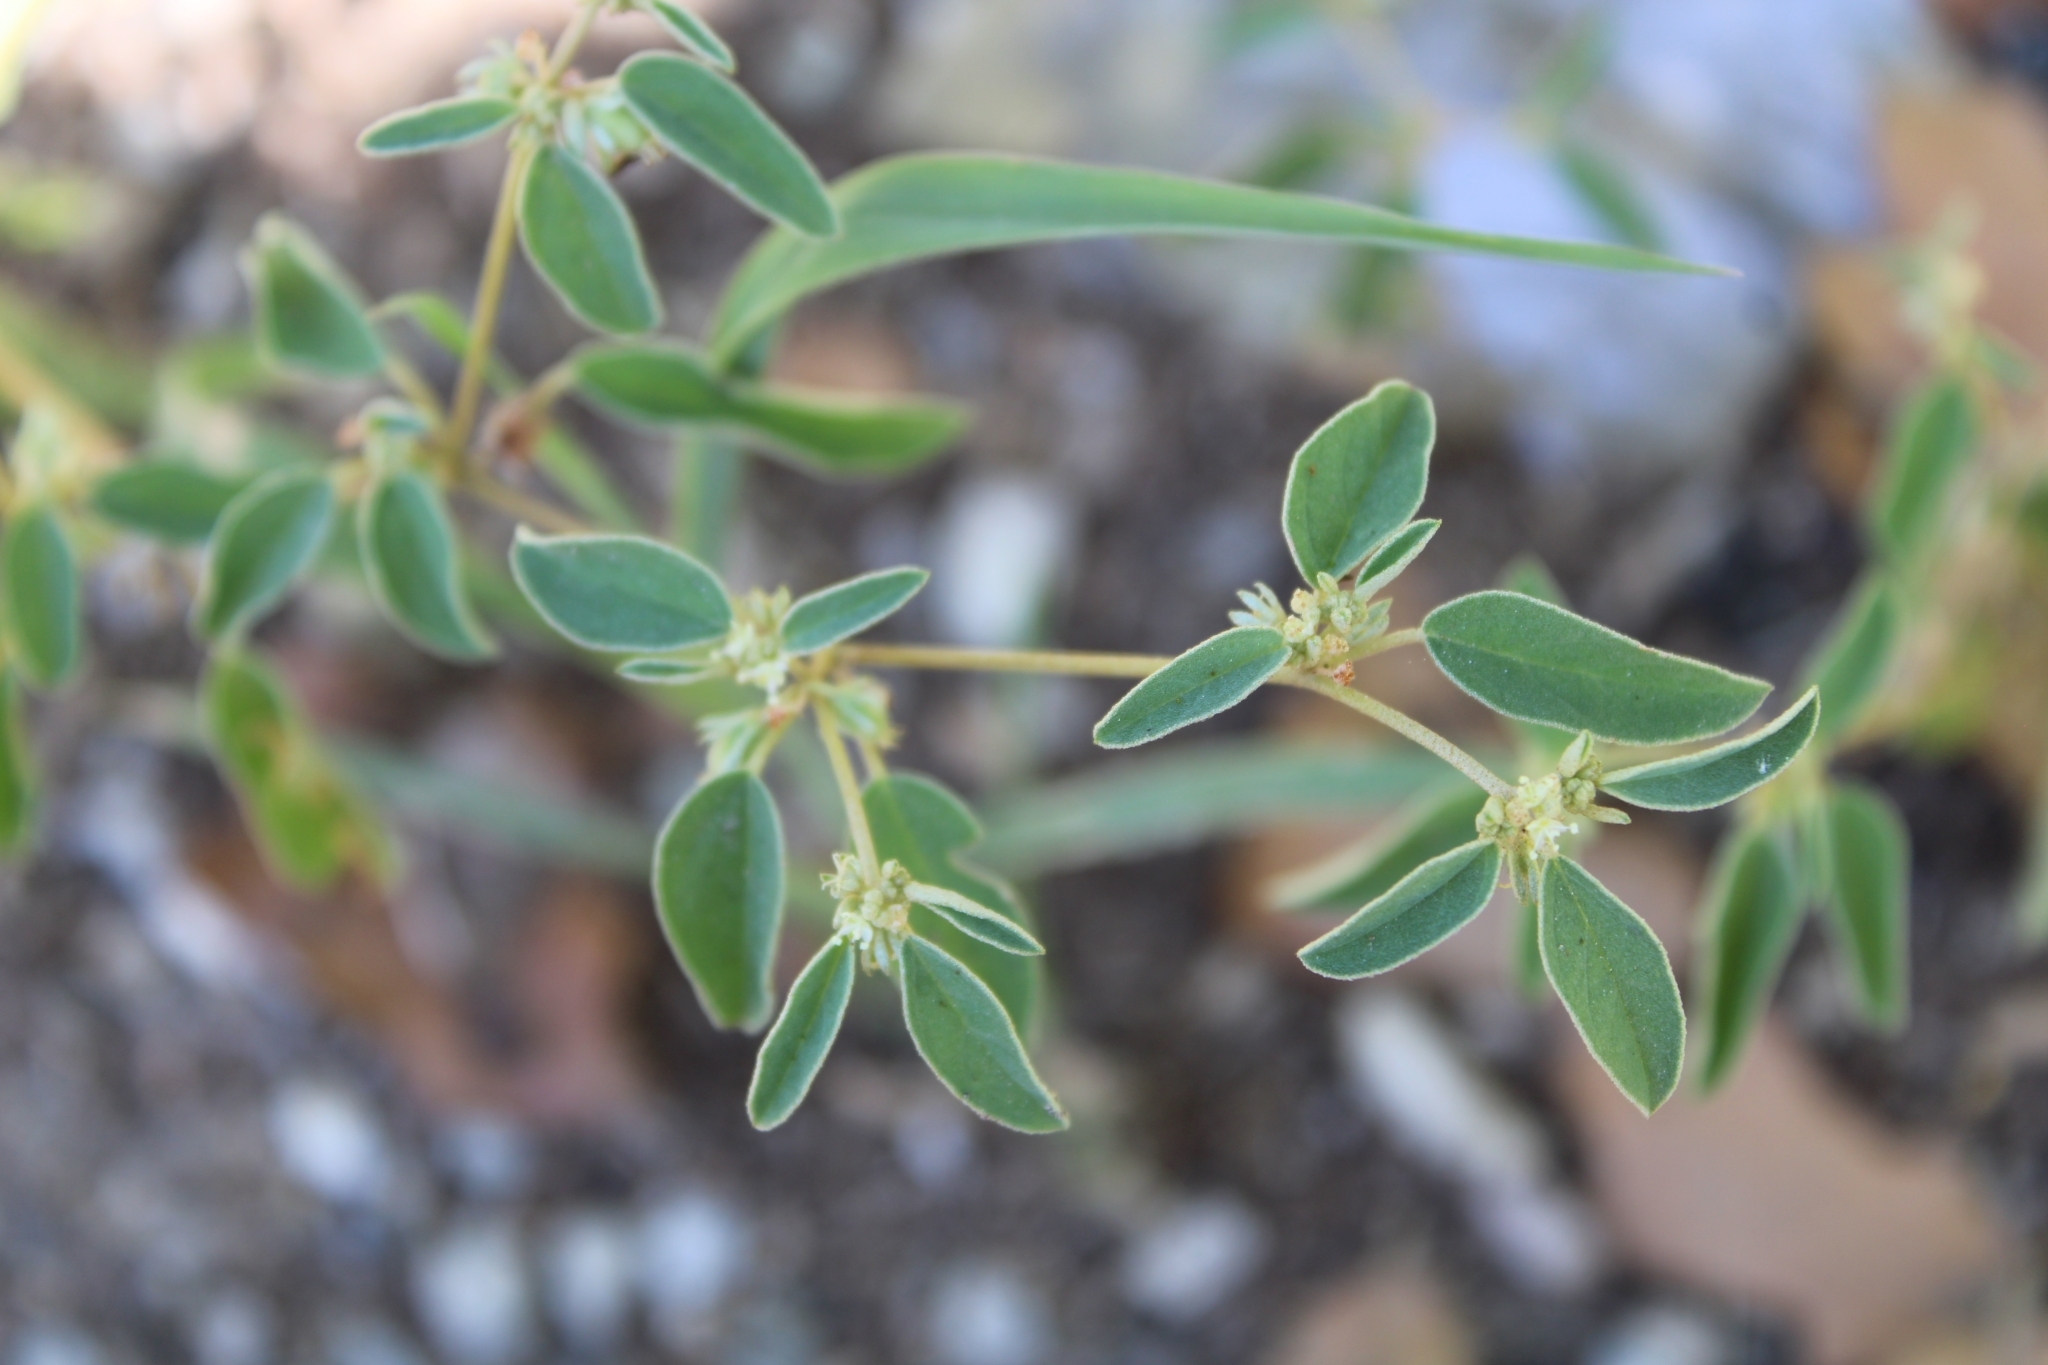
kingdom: Plantae
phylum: Tracheophyta
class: Magnoliopsida
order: Malpighiales
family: Euphorbiaceae
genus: Croton
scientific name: Croton monanthogynus
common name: One-seed croton
